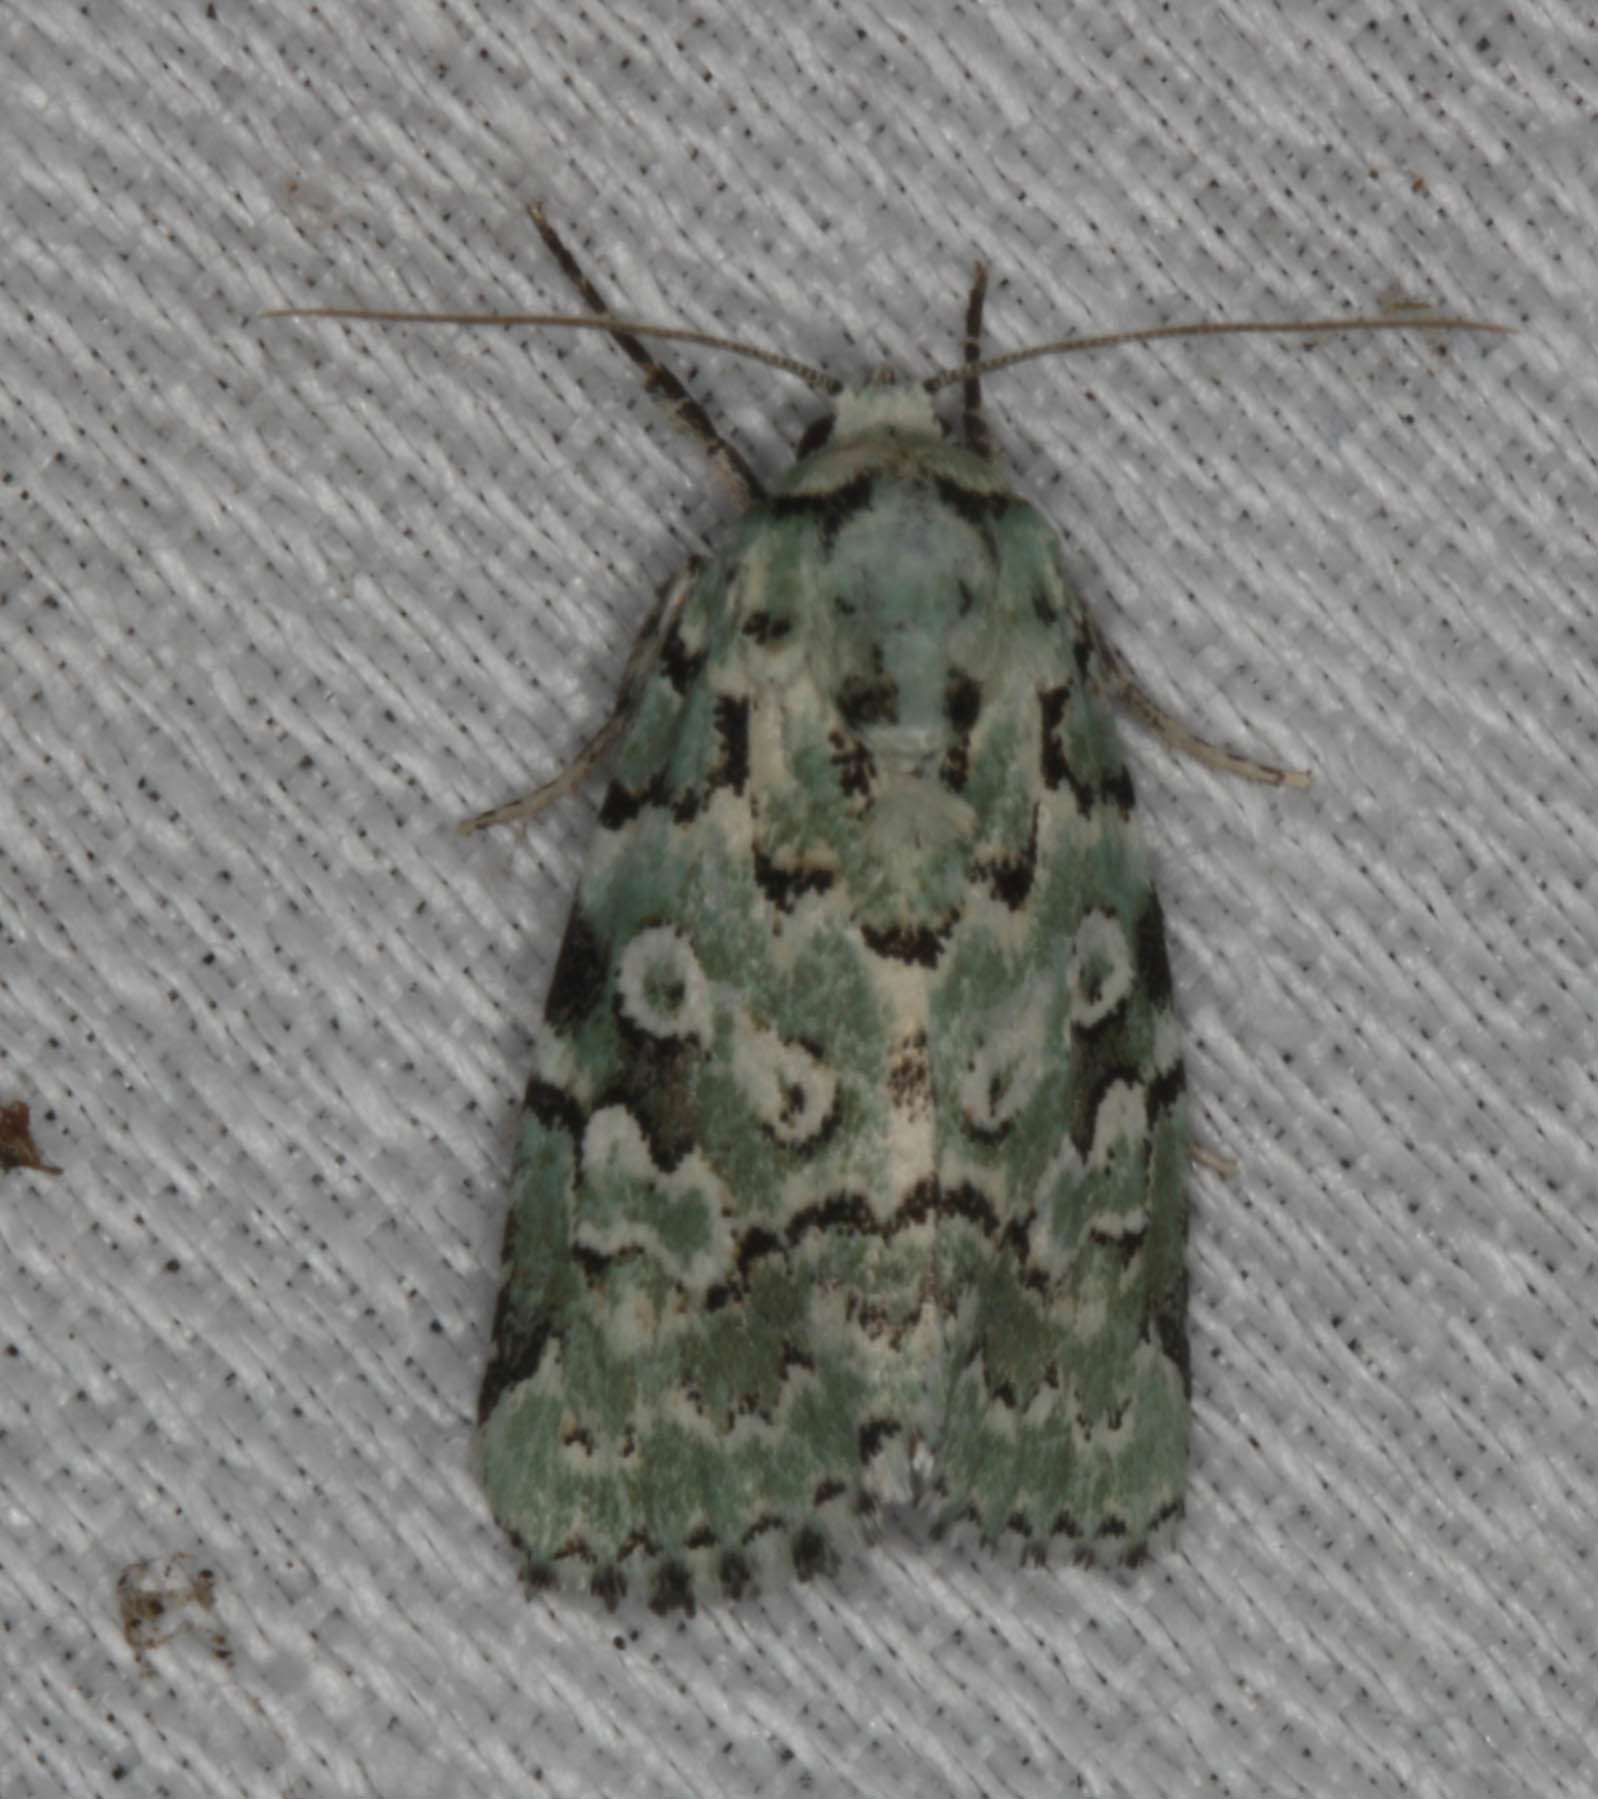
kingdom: Animalia
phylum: Arthropoda
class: Insecta
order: Lepidoptera
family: Noctuidae
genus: Bryolymnia
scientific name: Bryolymnia viridata
